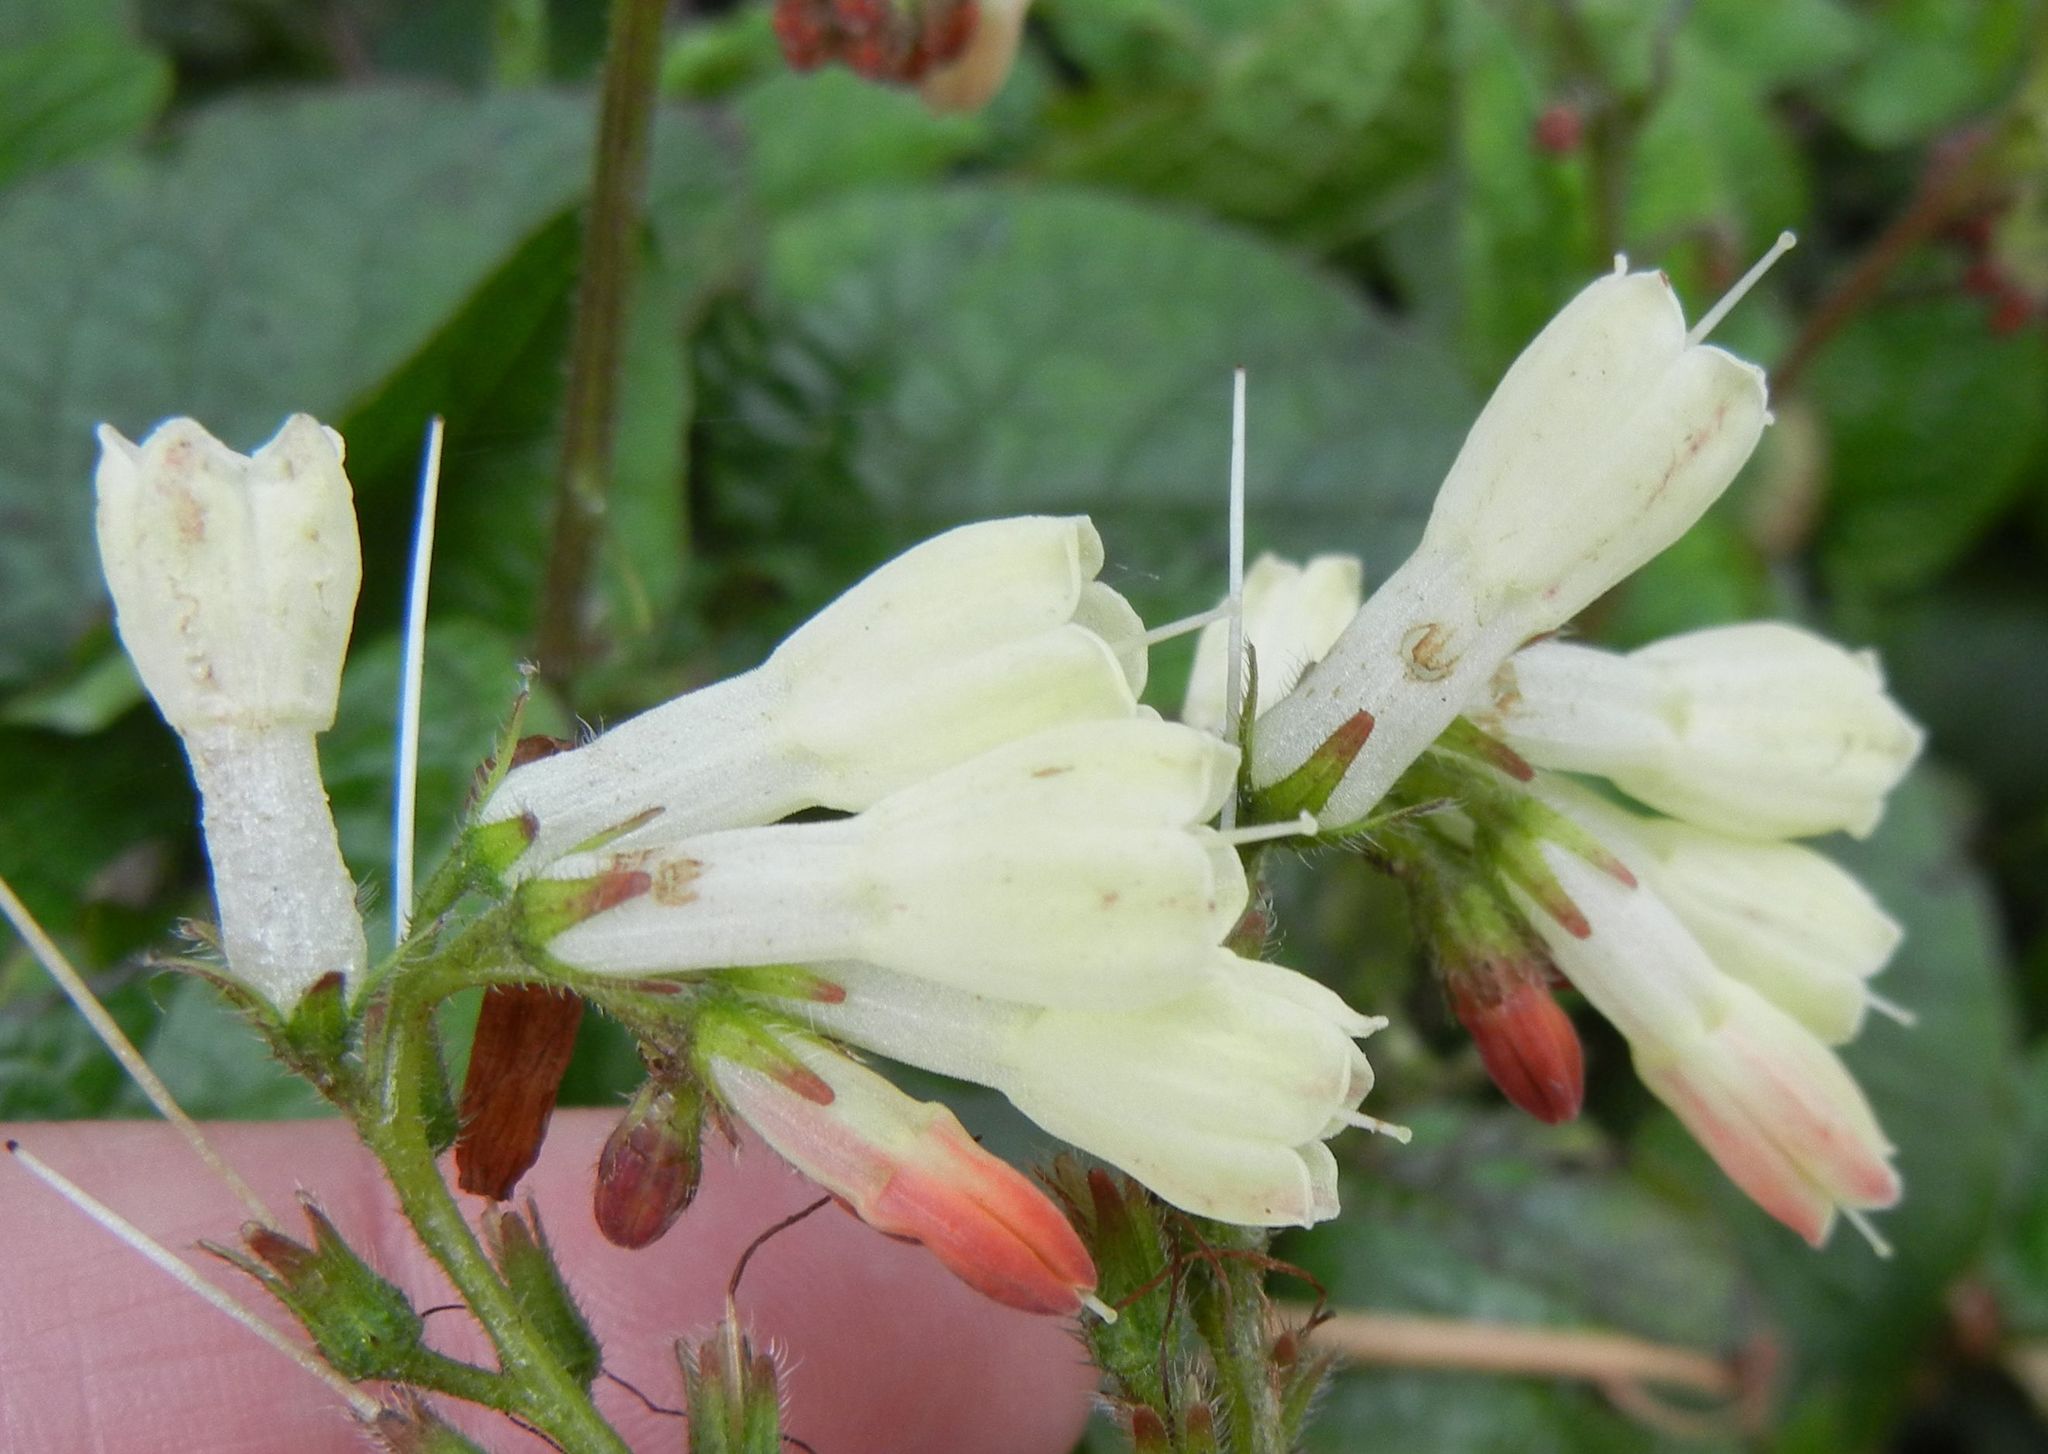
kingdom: Plantae
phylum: Tracheophyta
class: Magnoliopsida
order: Boraginales
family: Boraginaceae
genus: Symphytum
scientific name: Symphytum grandiflorum
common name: Creeping comfrey
